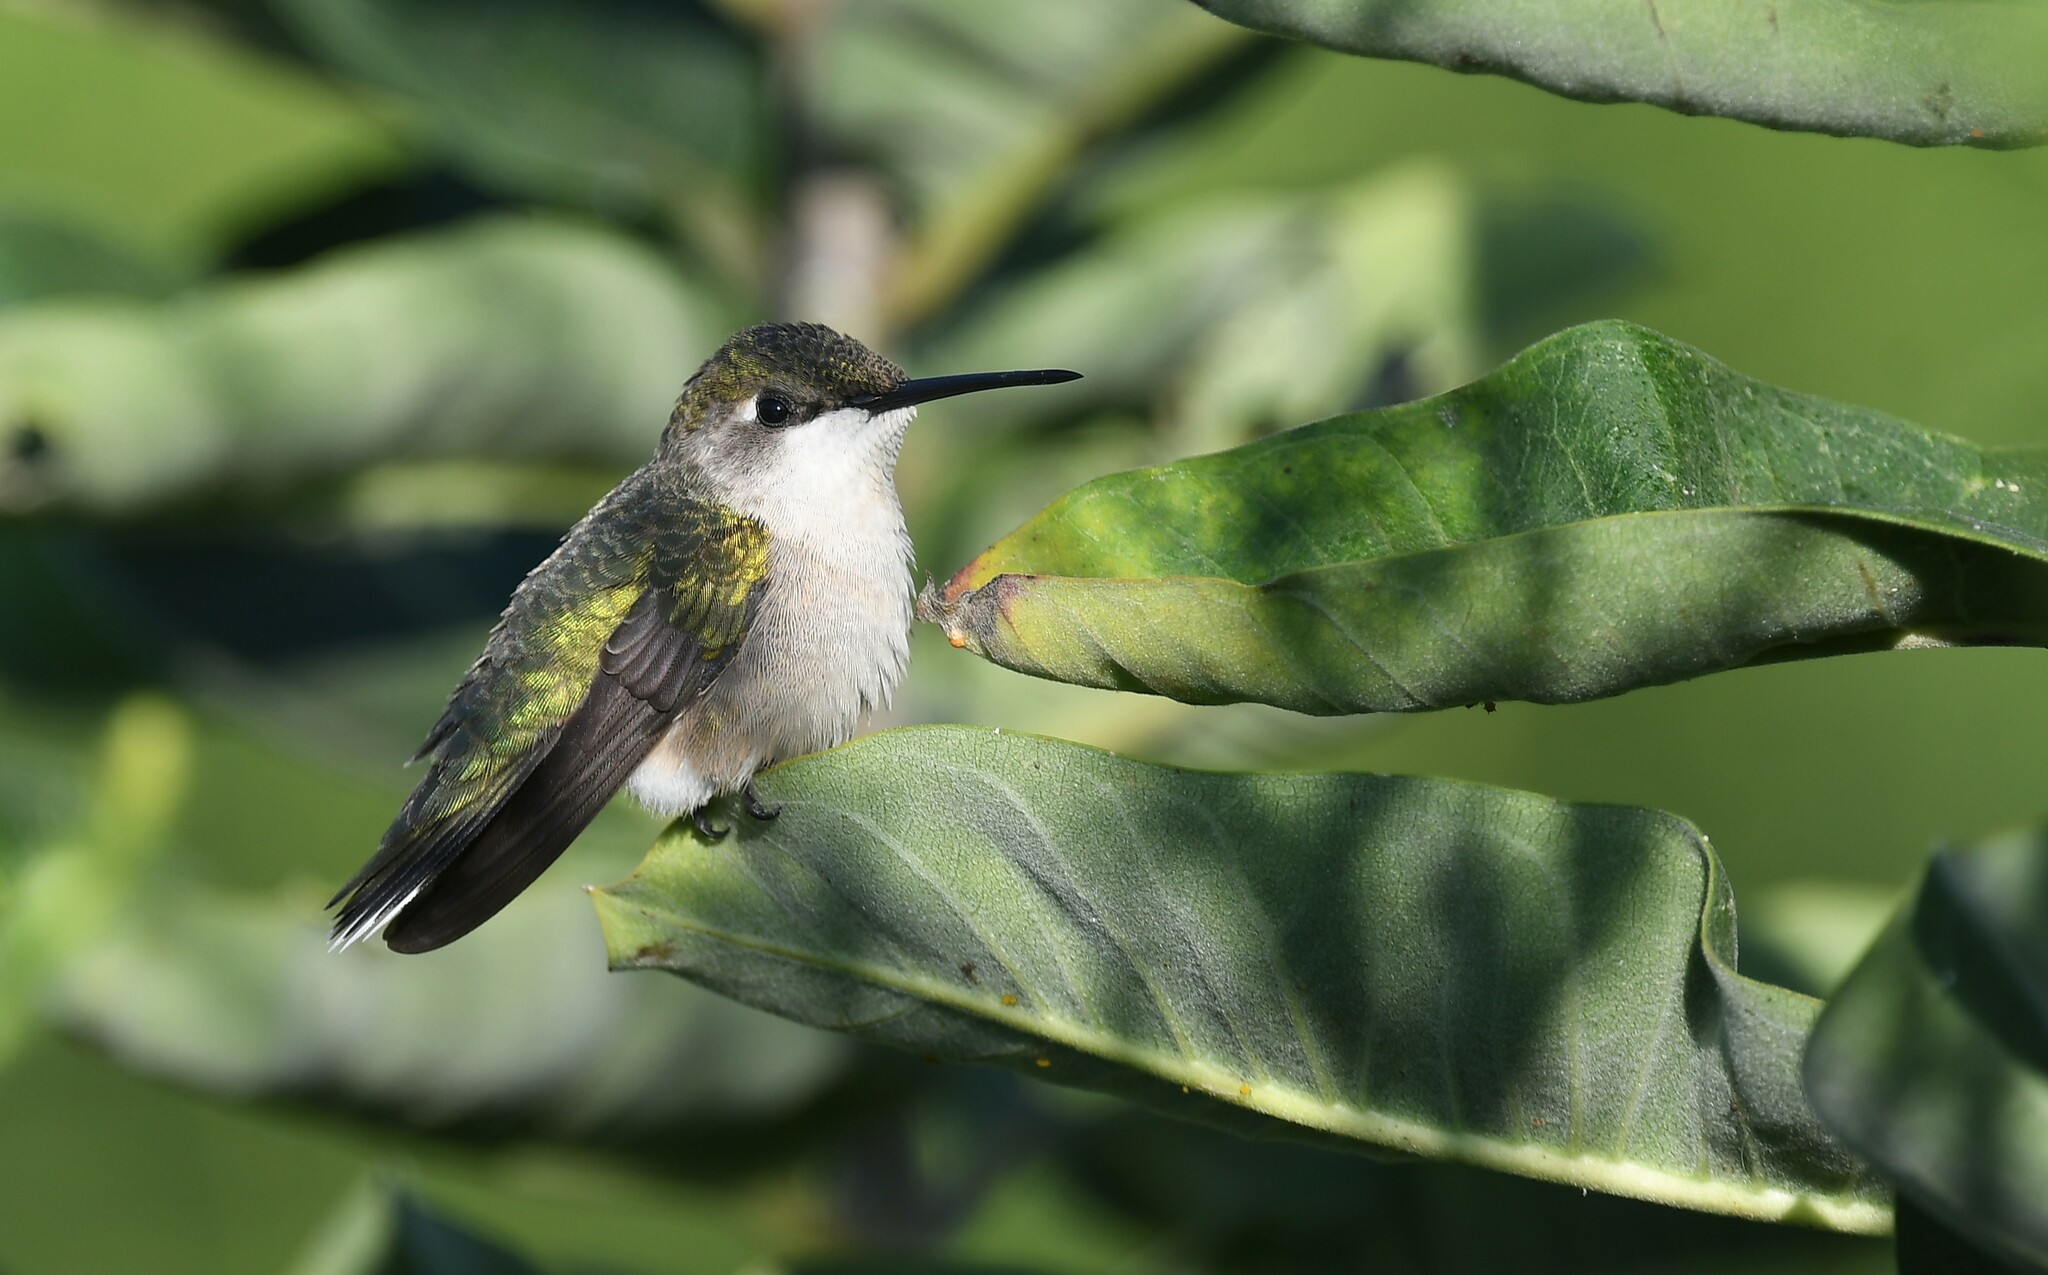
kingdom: Animalia
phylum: Chordata
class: Aves
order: Apodiformes
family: Trochilidae
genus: Archilochus
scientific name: Archilochus colubris
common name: Ruby-throated hummingbird
